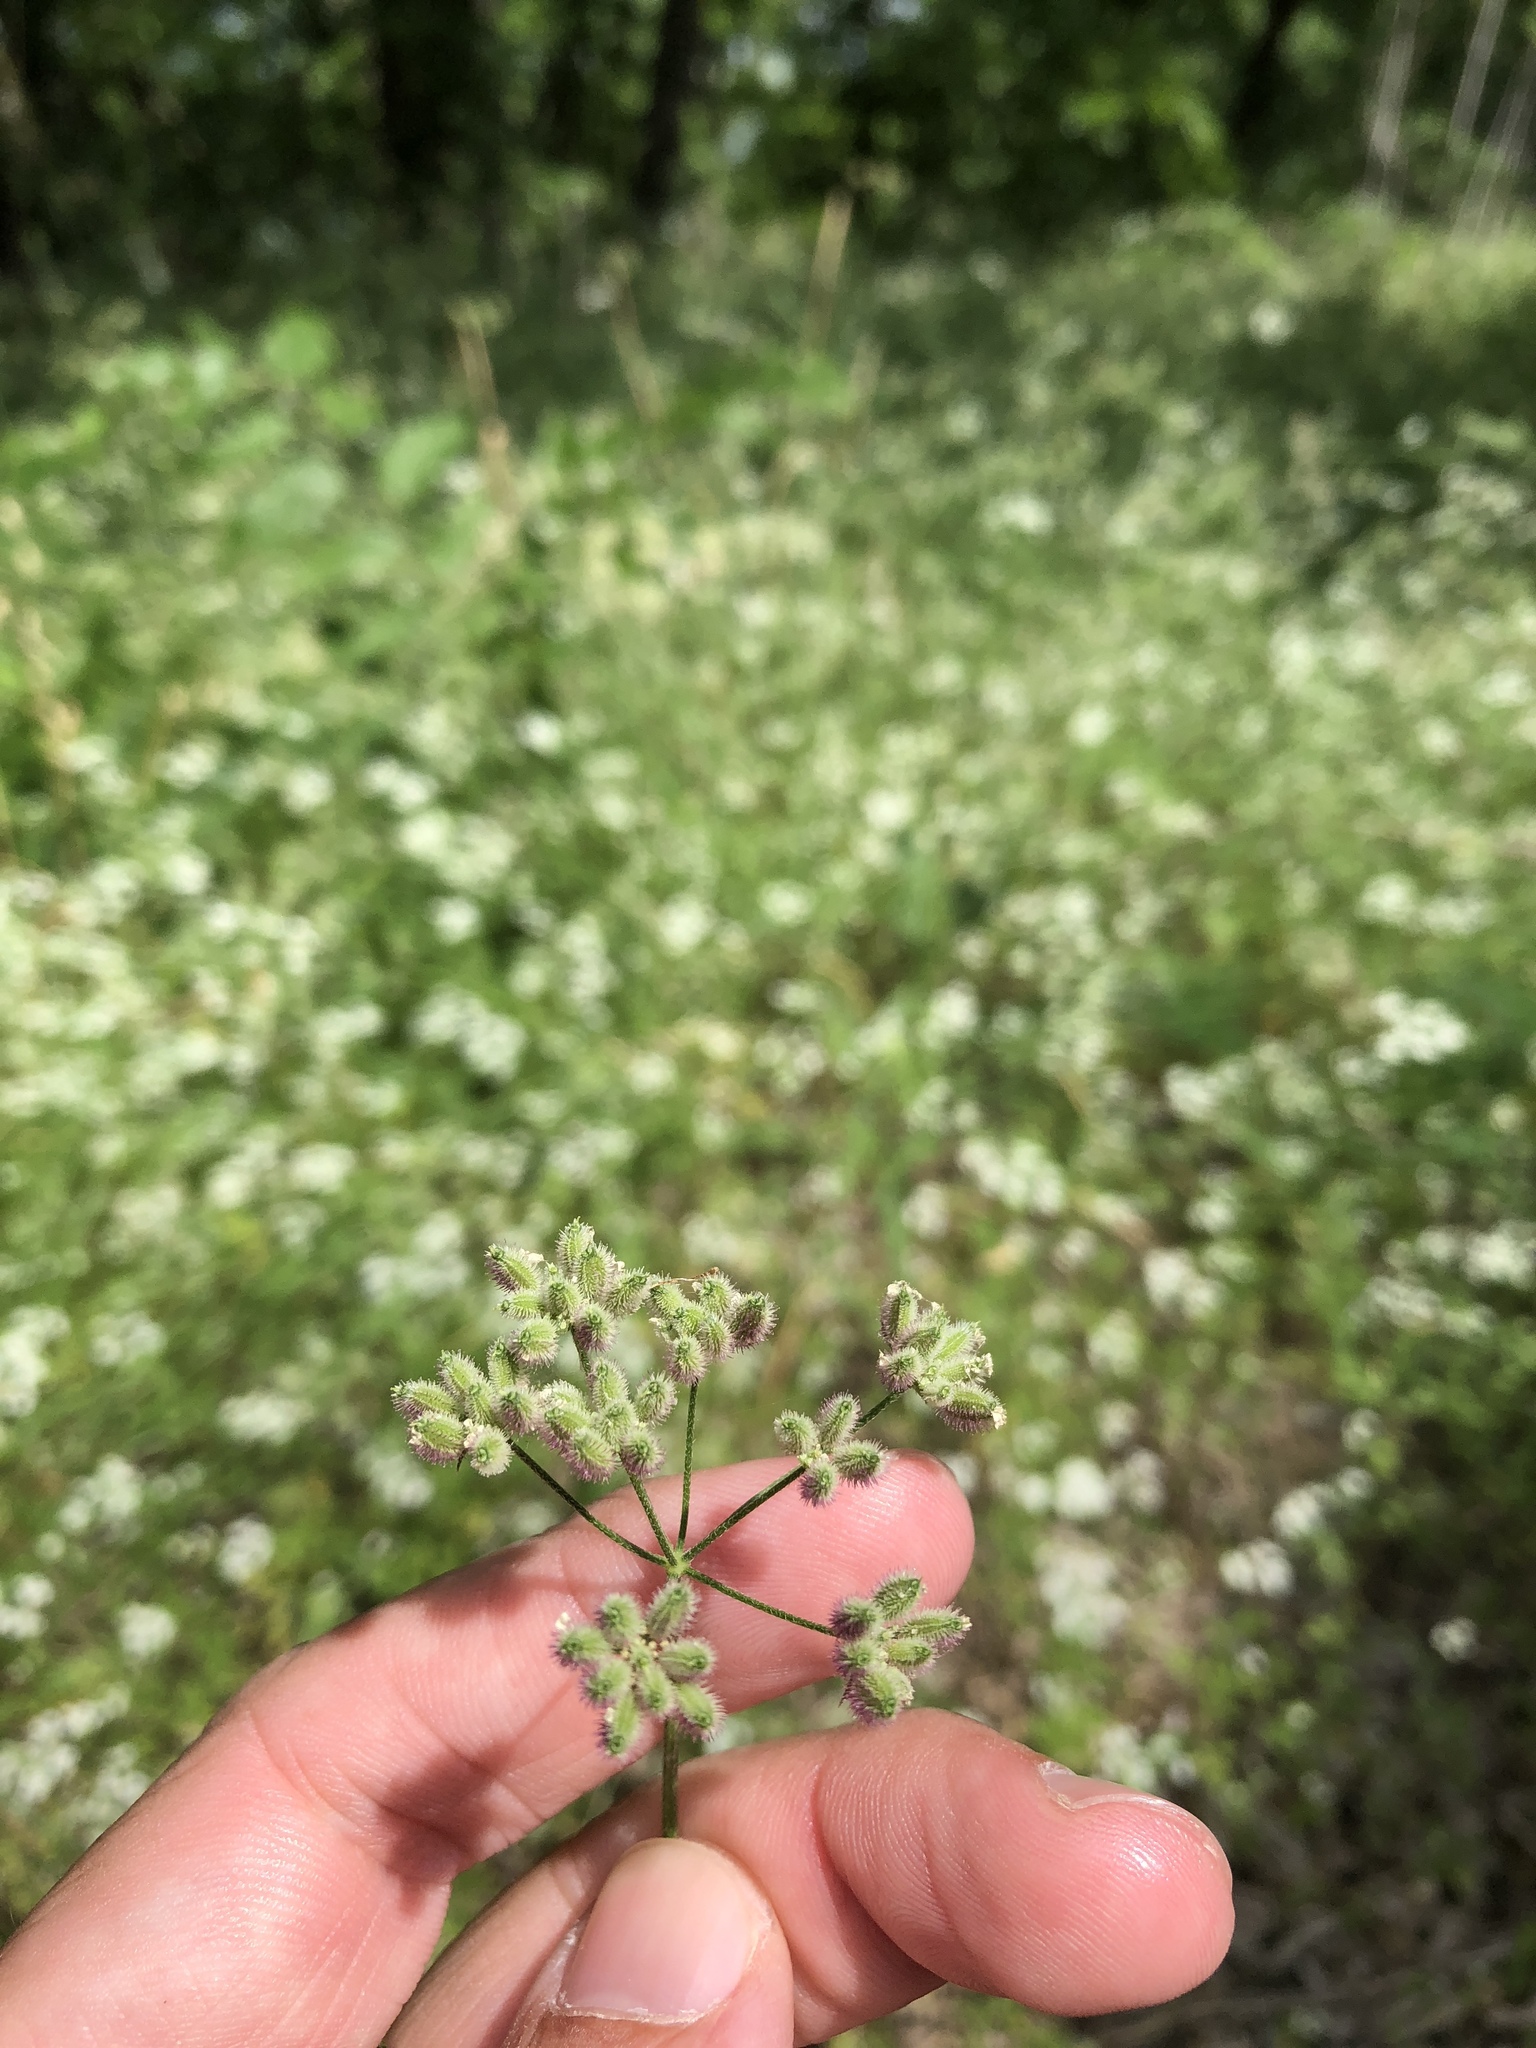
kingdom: Plantae
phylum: Tracheophyta
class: Magnoliopsida
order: Apiales
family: Apiaceae
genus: Torilis
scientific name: Torilis arvensis
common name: Spreading hedge-parsley
